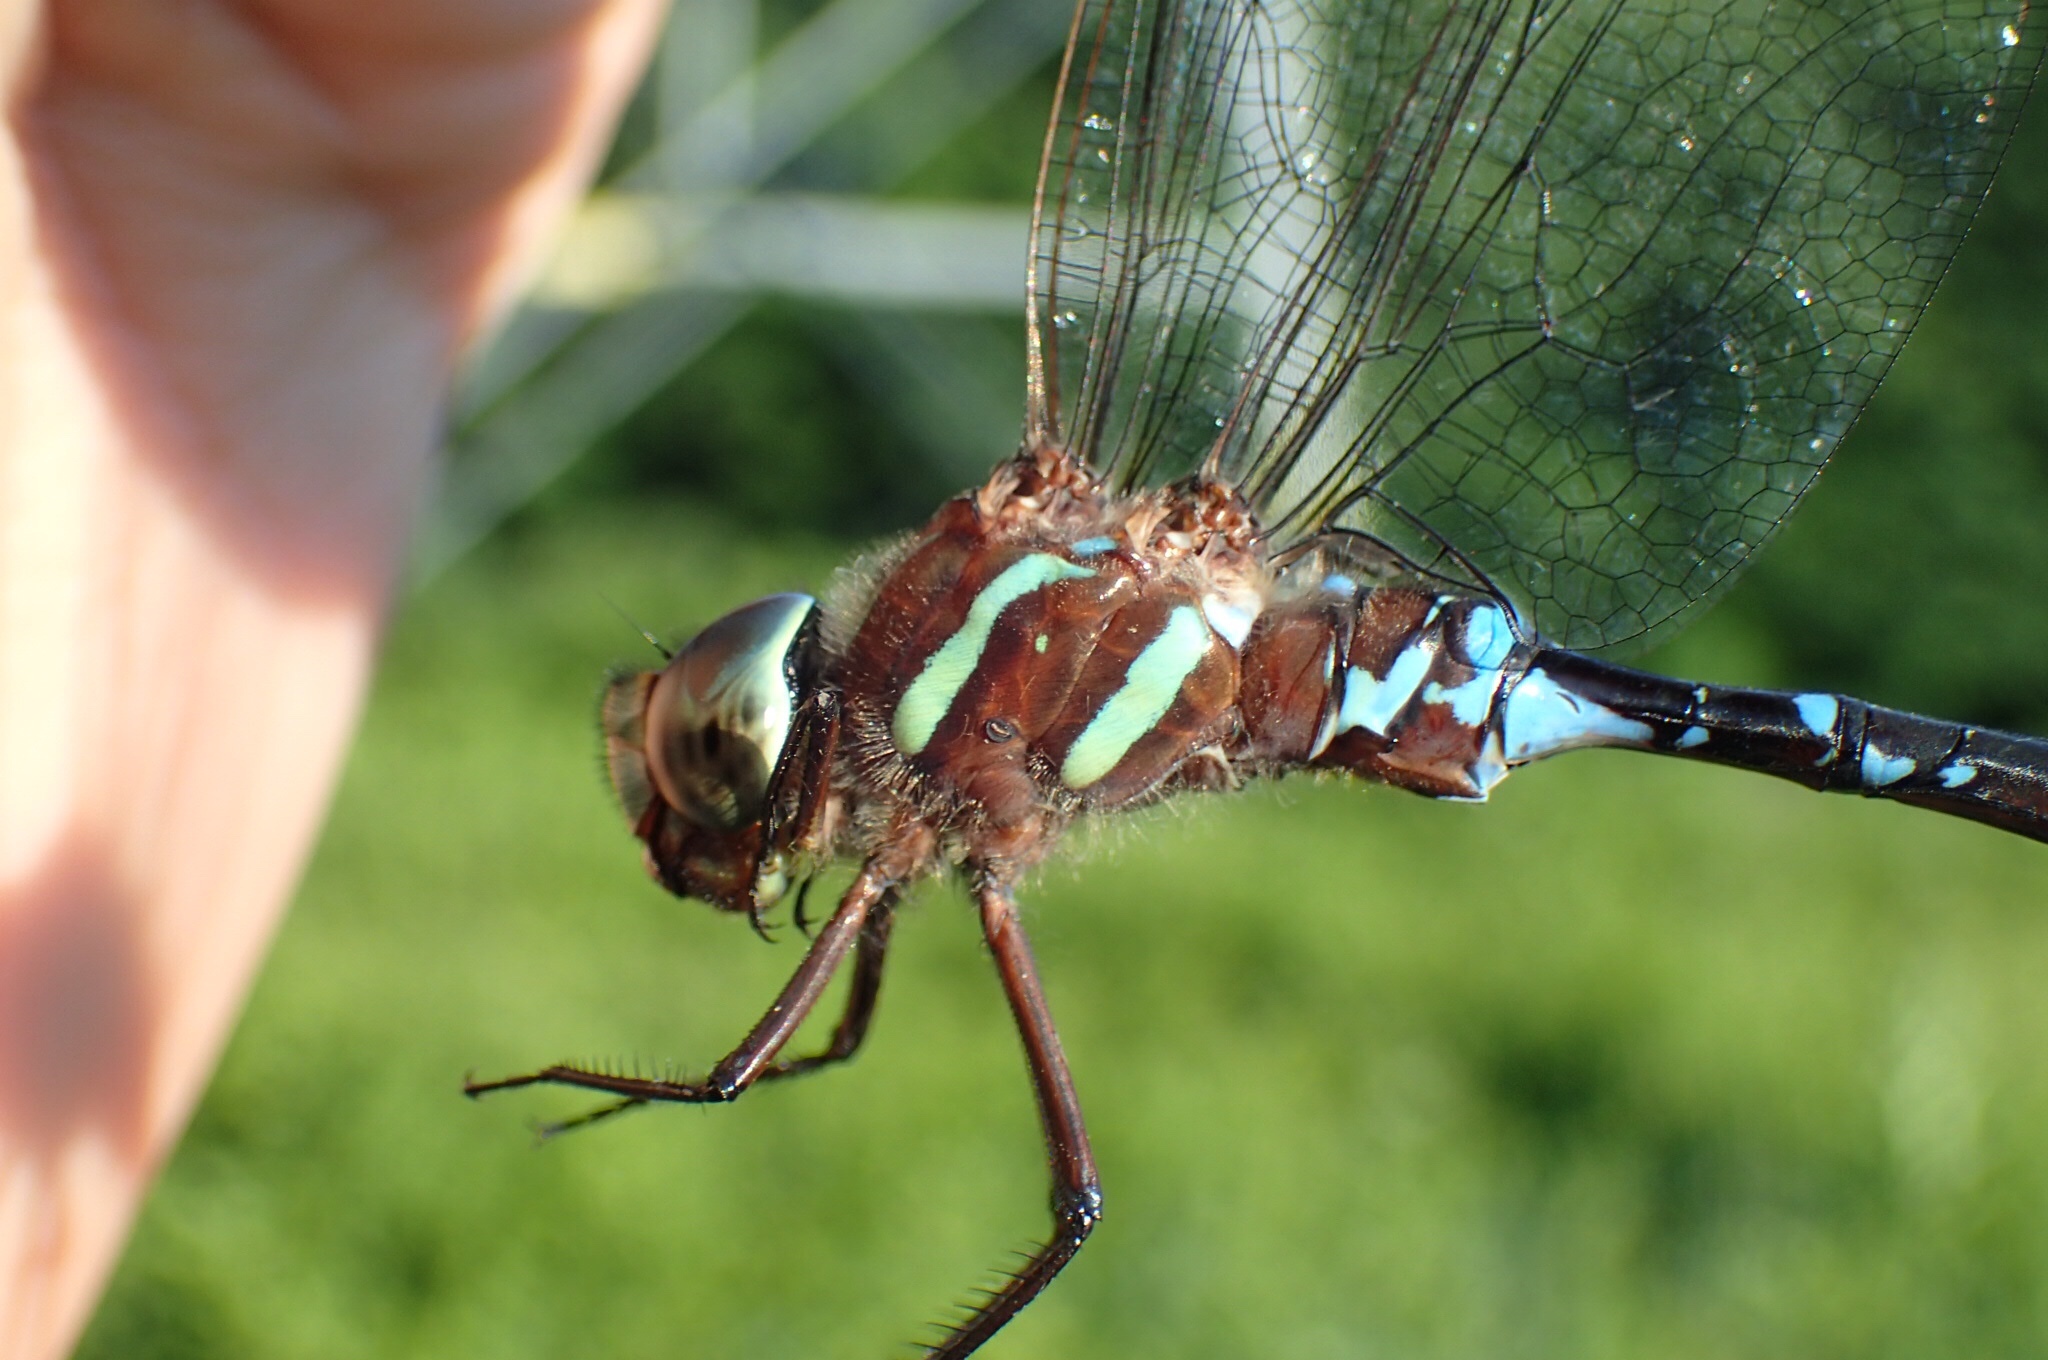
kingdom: Animalia
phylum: Arthropoda
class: Insecta
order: Odonata
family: Aeshnidae
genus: Aeshna
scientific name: Aeshna tuberculifera
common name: Aeschne à tubercules
